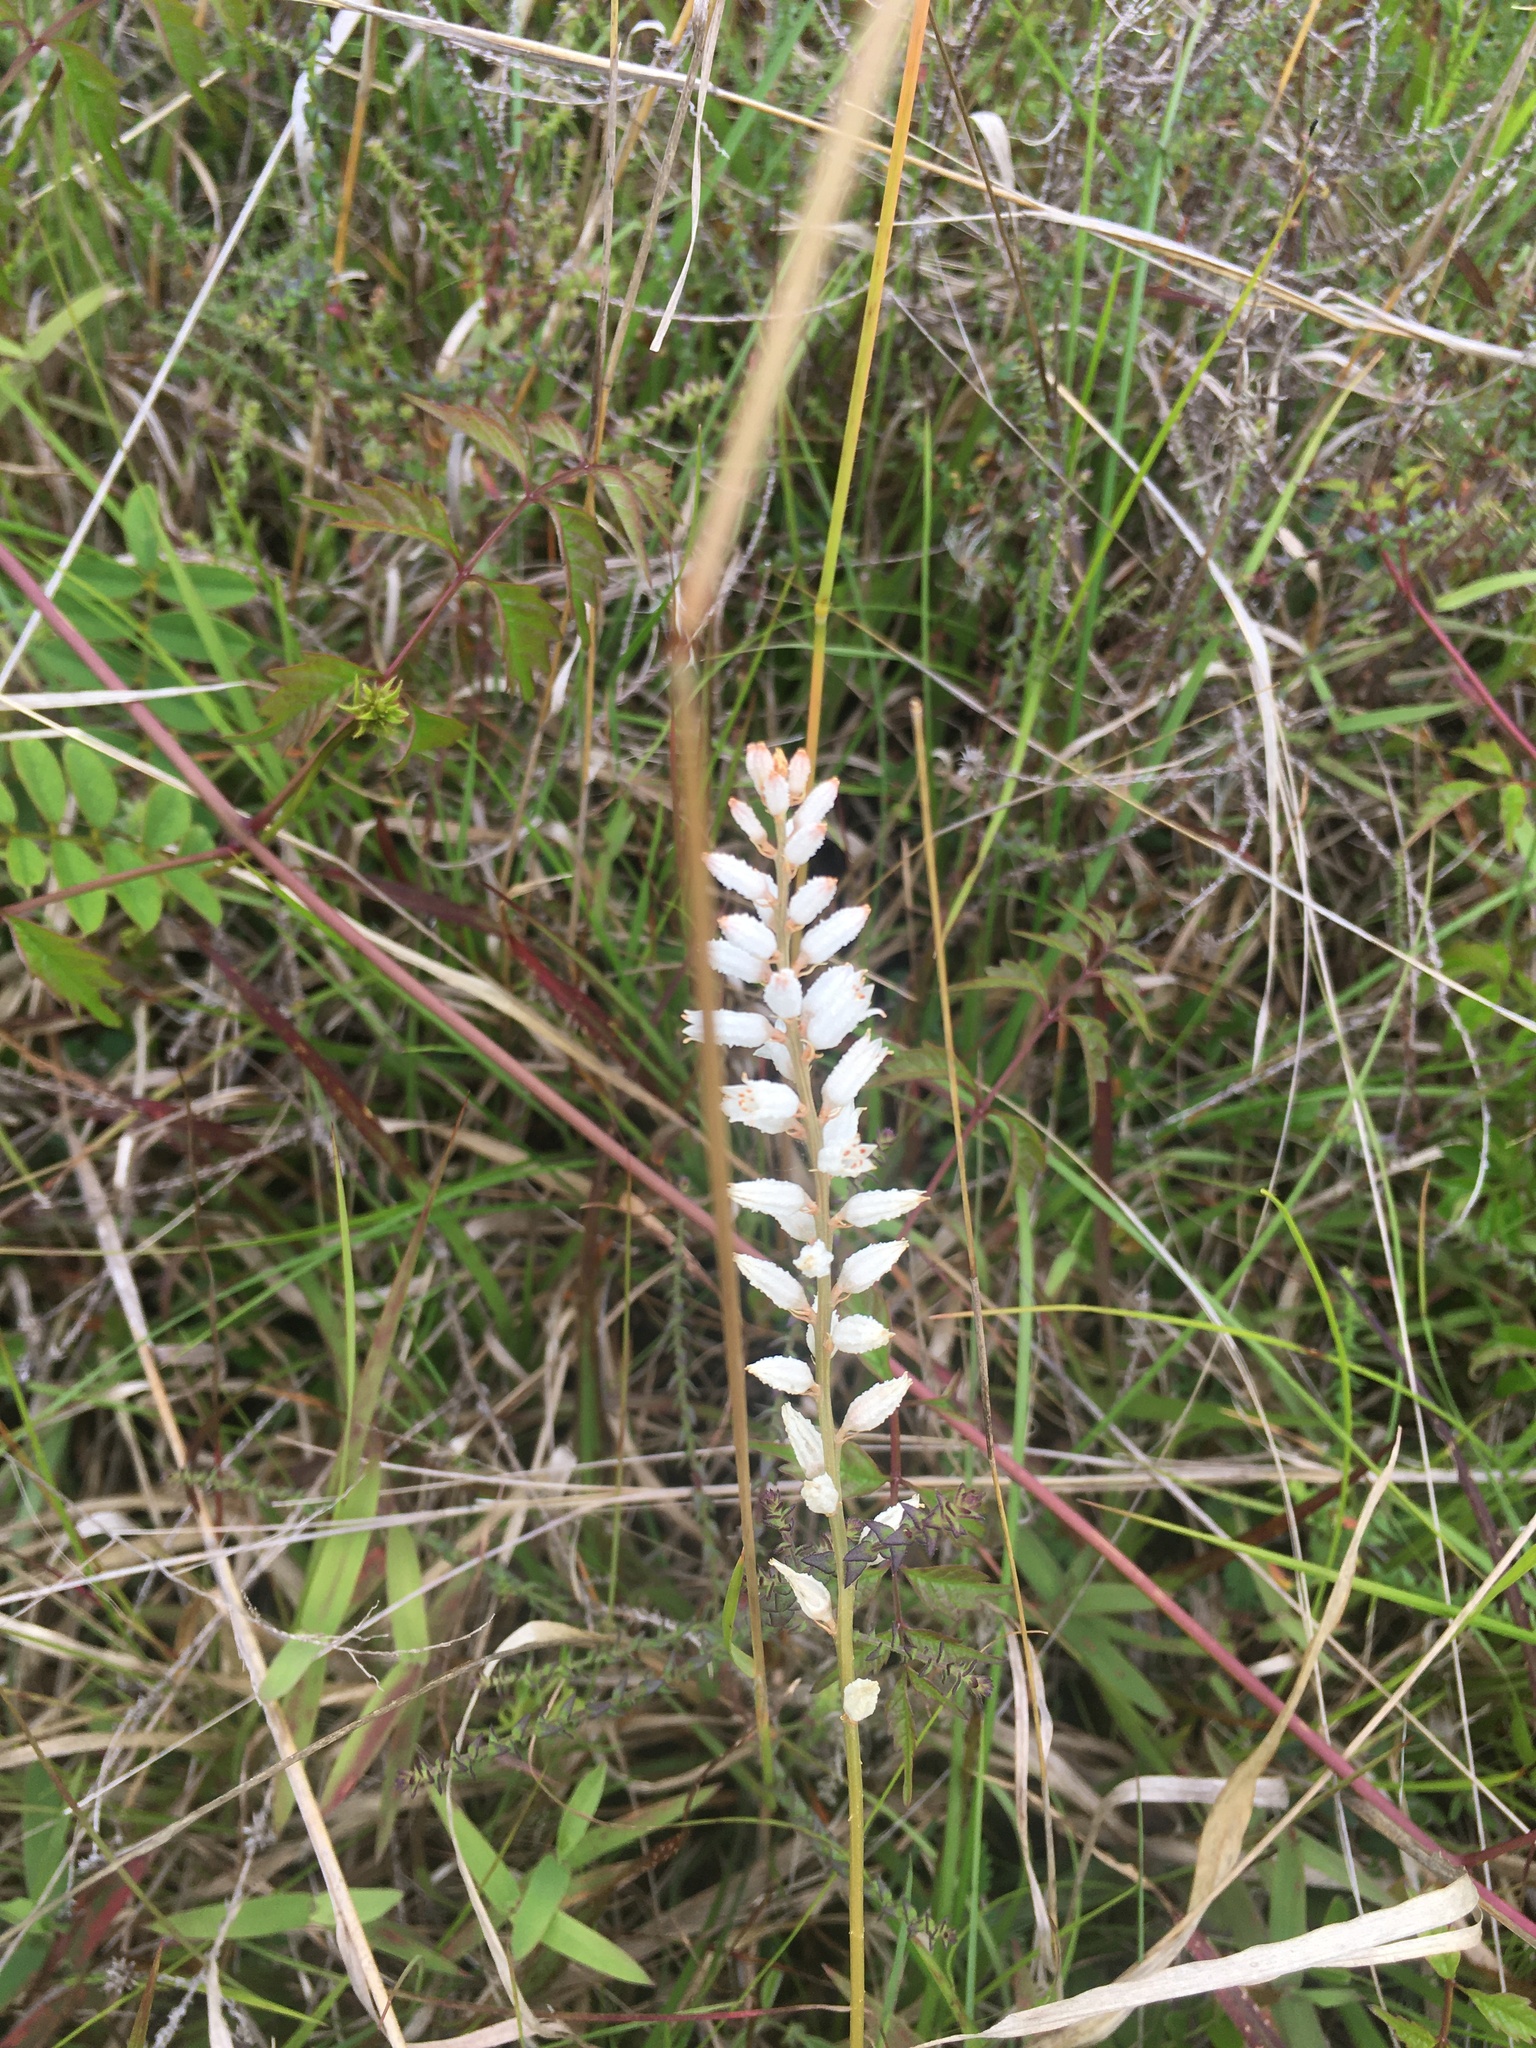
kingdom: Plantae
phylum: Tracheophyta
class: Liliopsida
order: Dioscoreales
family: Nartheciaceae
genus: Aletris
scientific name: Aletris farinosa
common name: Colicroot
